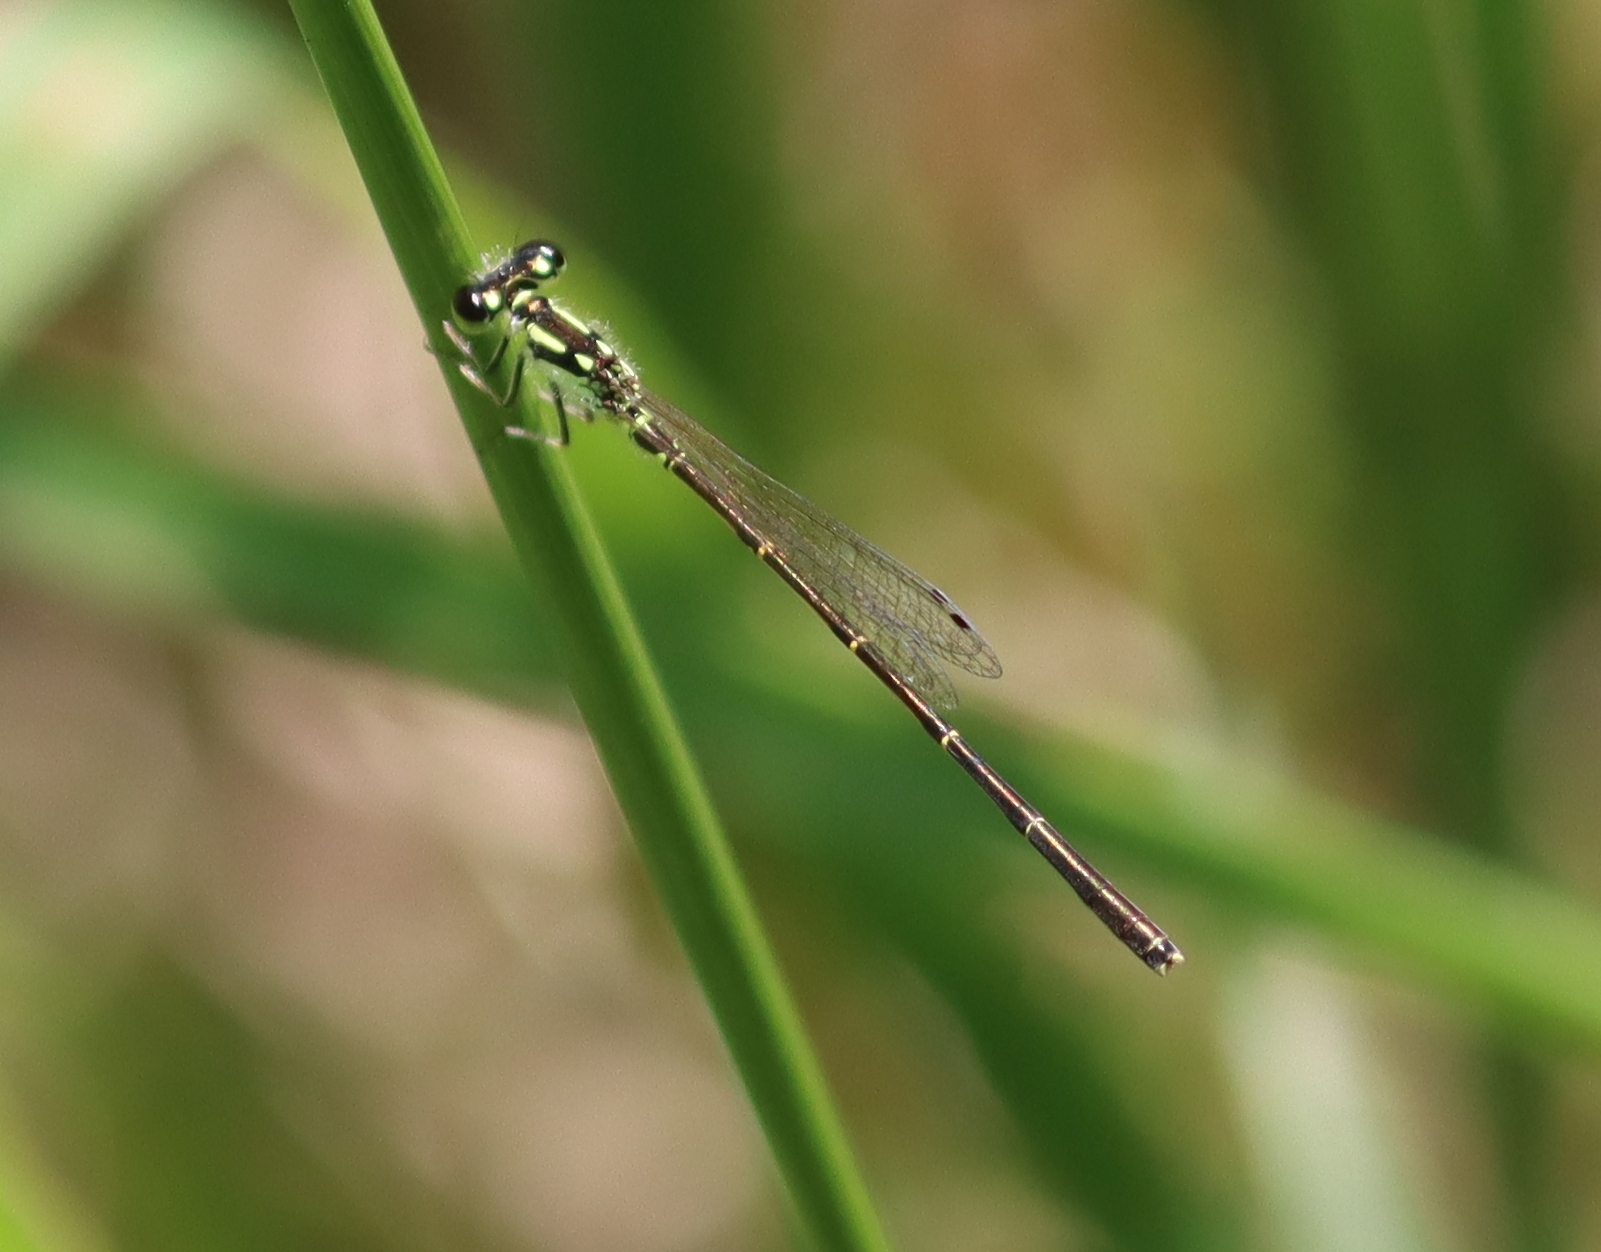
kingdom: Animalia
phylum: Arthropoda
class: Insecta
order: Odonata
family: Coenagrionidae
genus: Ischnura
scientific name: Ischnura posita
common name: Fragile forktail
